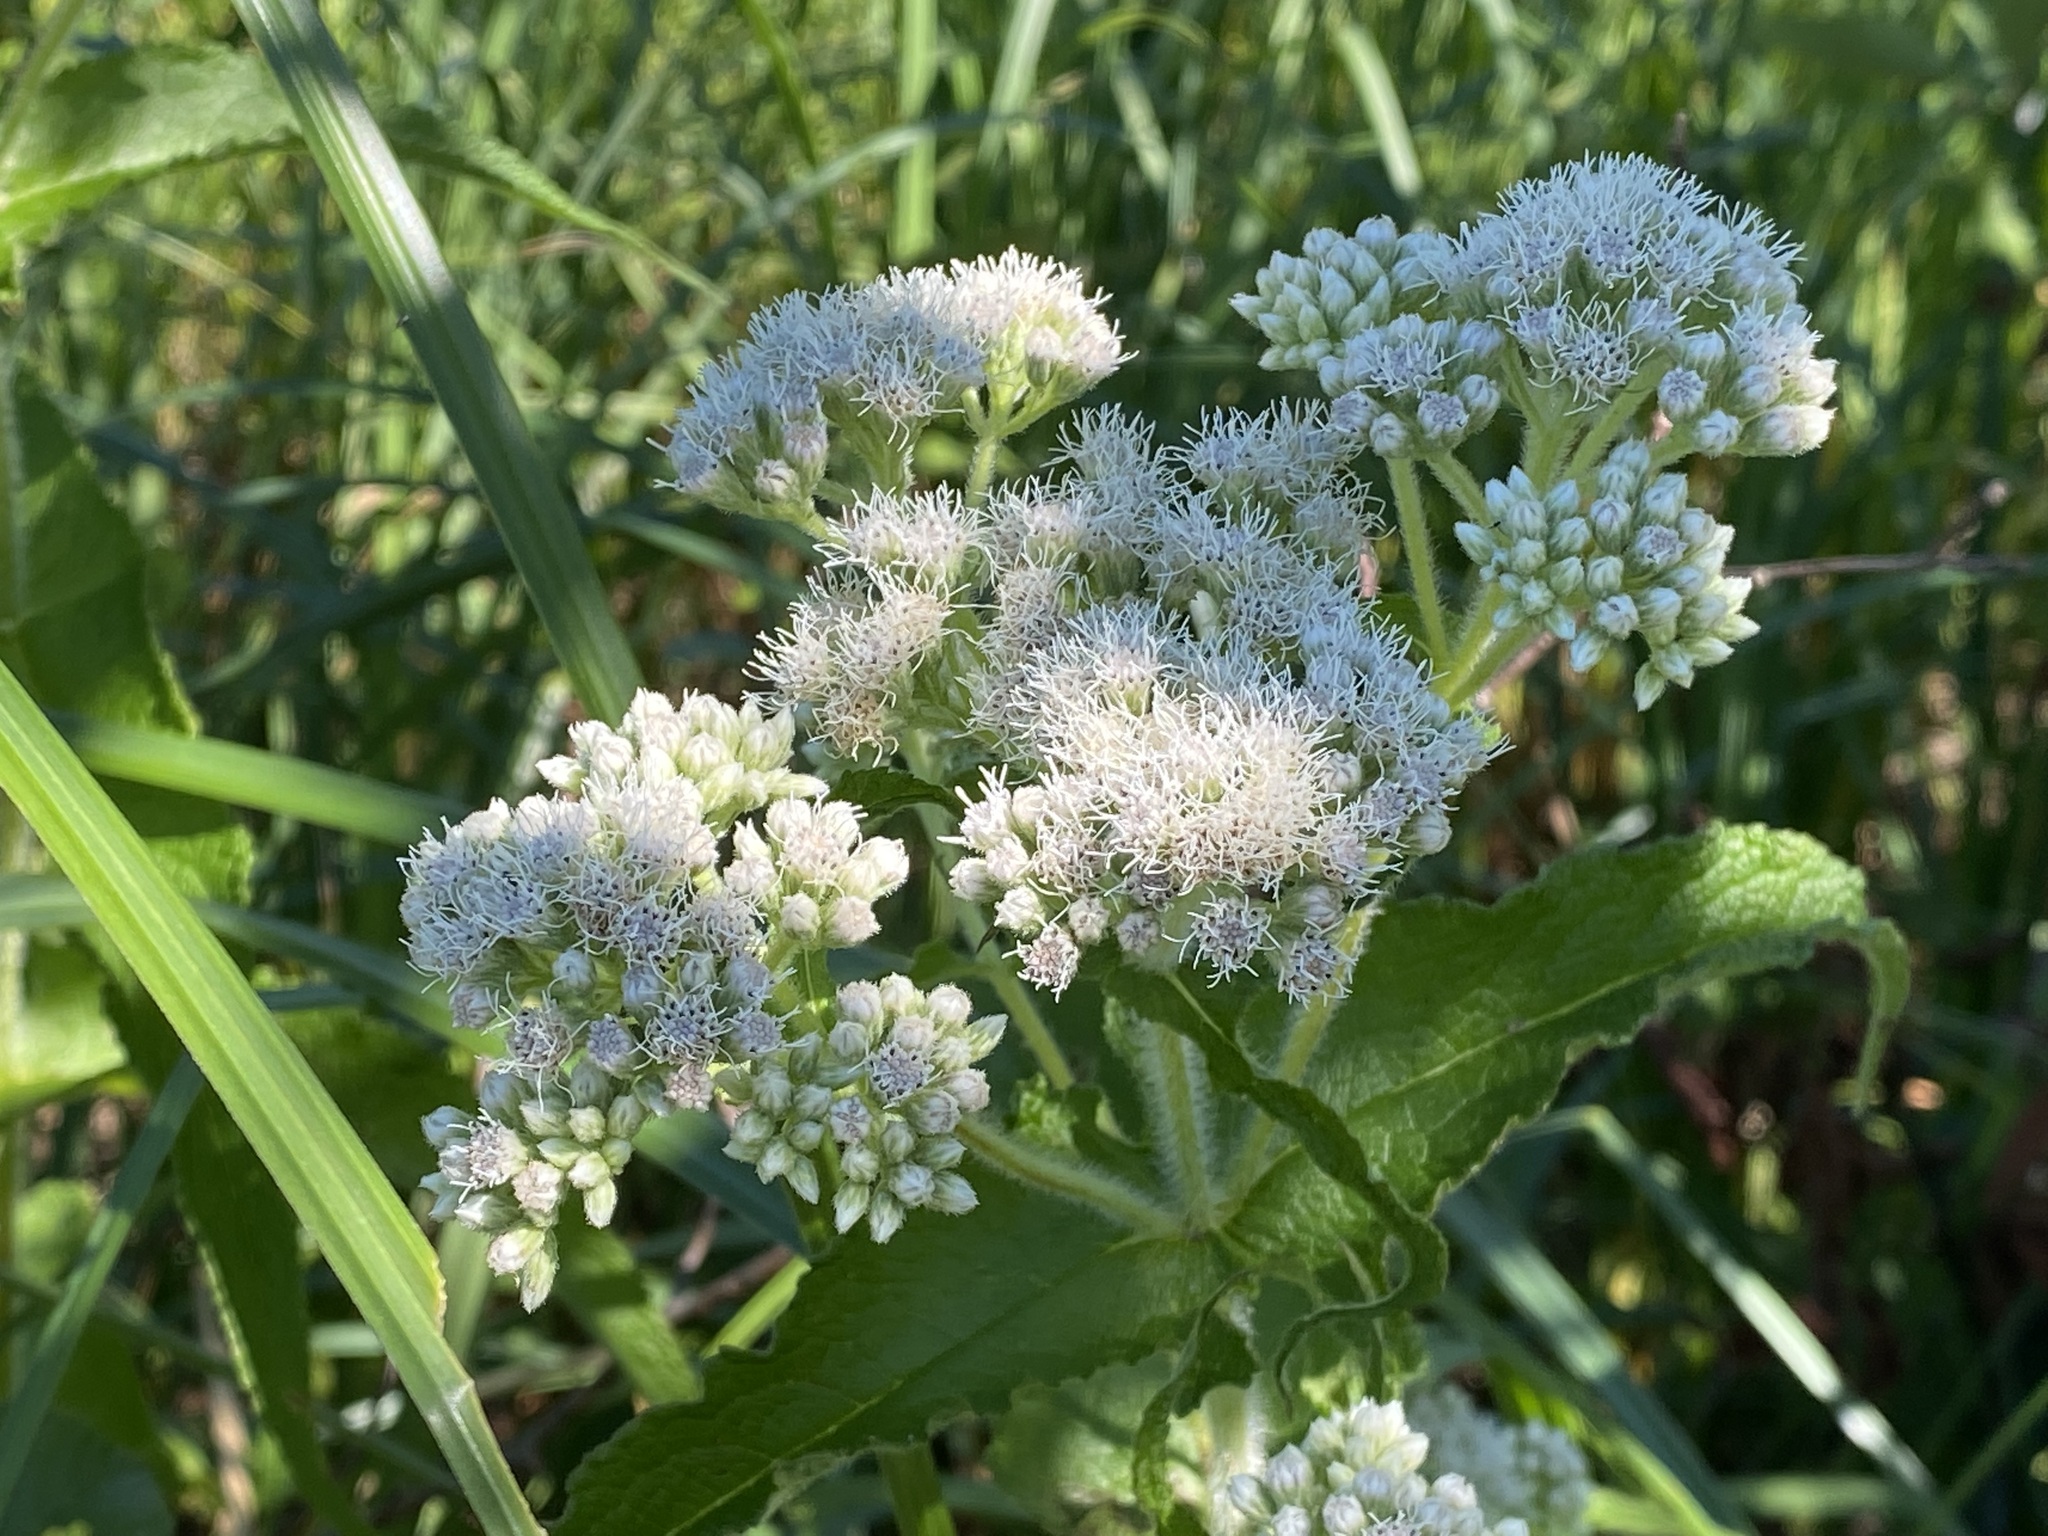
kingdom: Plantae
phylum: Tracheophyta
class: Magnoliopsida
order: Asterales
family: Asteraceae
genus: Eupatorium
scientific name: Eupatorium perfoliatum
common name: Boneset
